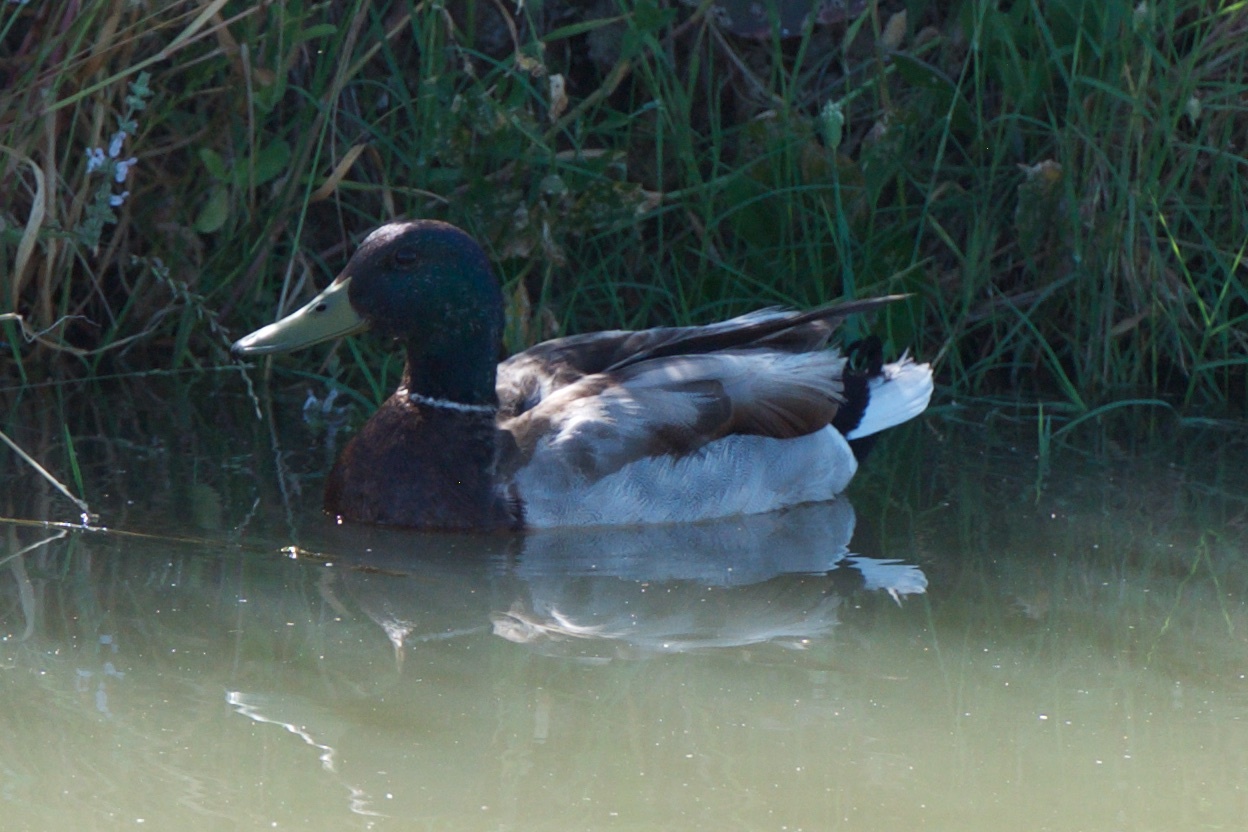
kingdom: Animalia
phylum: Chordata
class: Aves
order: Anseriformes
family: Anatidae
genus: Anas
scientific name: Anas platyrhynchos
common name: Mallard
